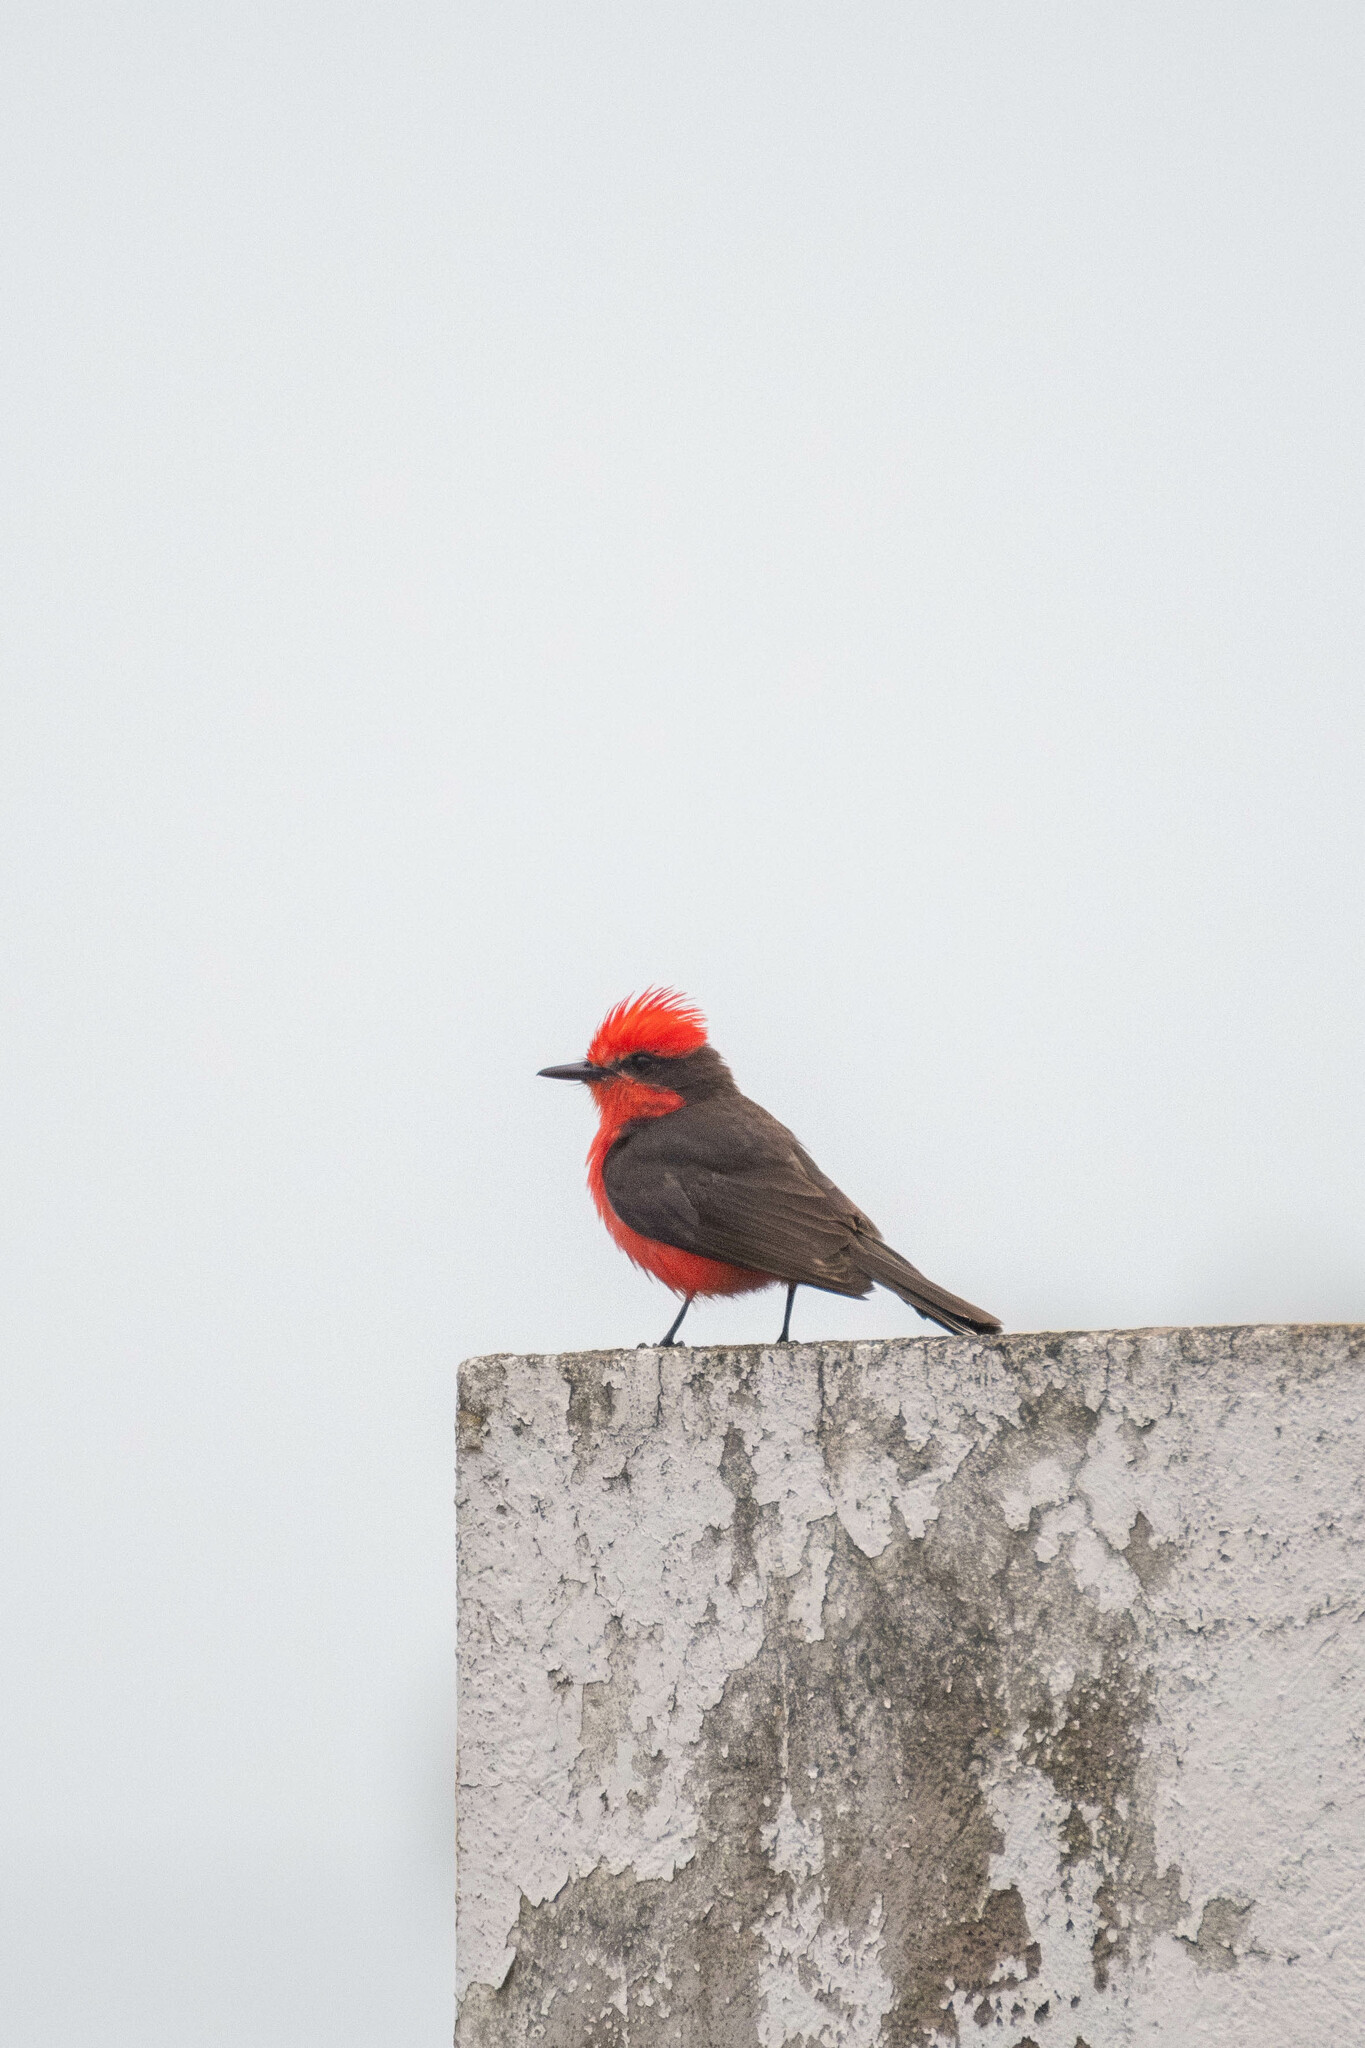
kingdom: Animalia
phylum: Chordata
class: Aves
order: Passeriformes
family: Tyrannidae
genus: Pyrocephalus
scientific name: Pyrocephalus rubinus
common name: Vermilion flycatcher
